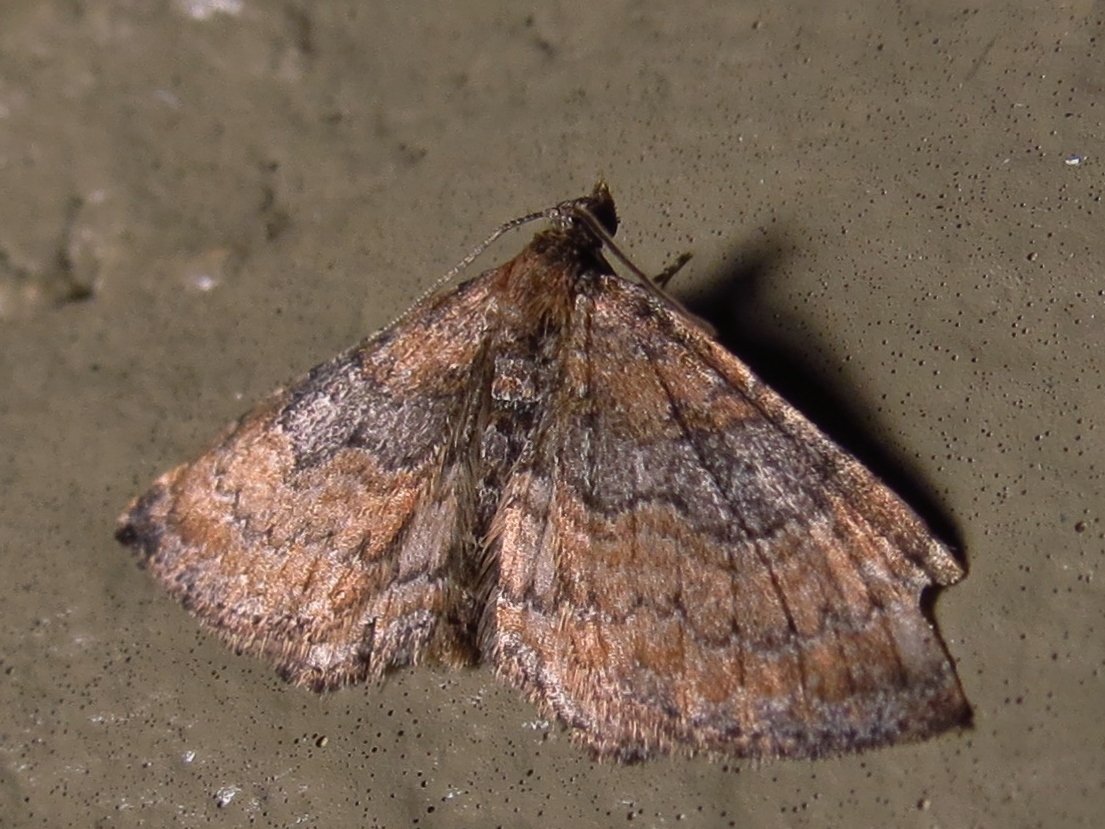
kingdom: Animalia
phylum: Arthropoda
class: Insecta
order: Lepidoptera
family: Geometridae
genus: Orthonama
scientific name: Orthonama obstipata
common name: The gem
